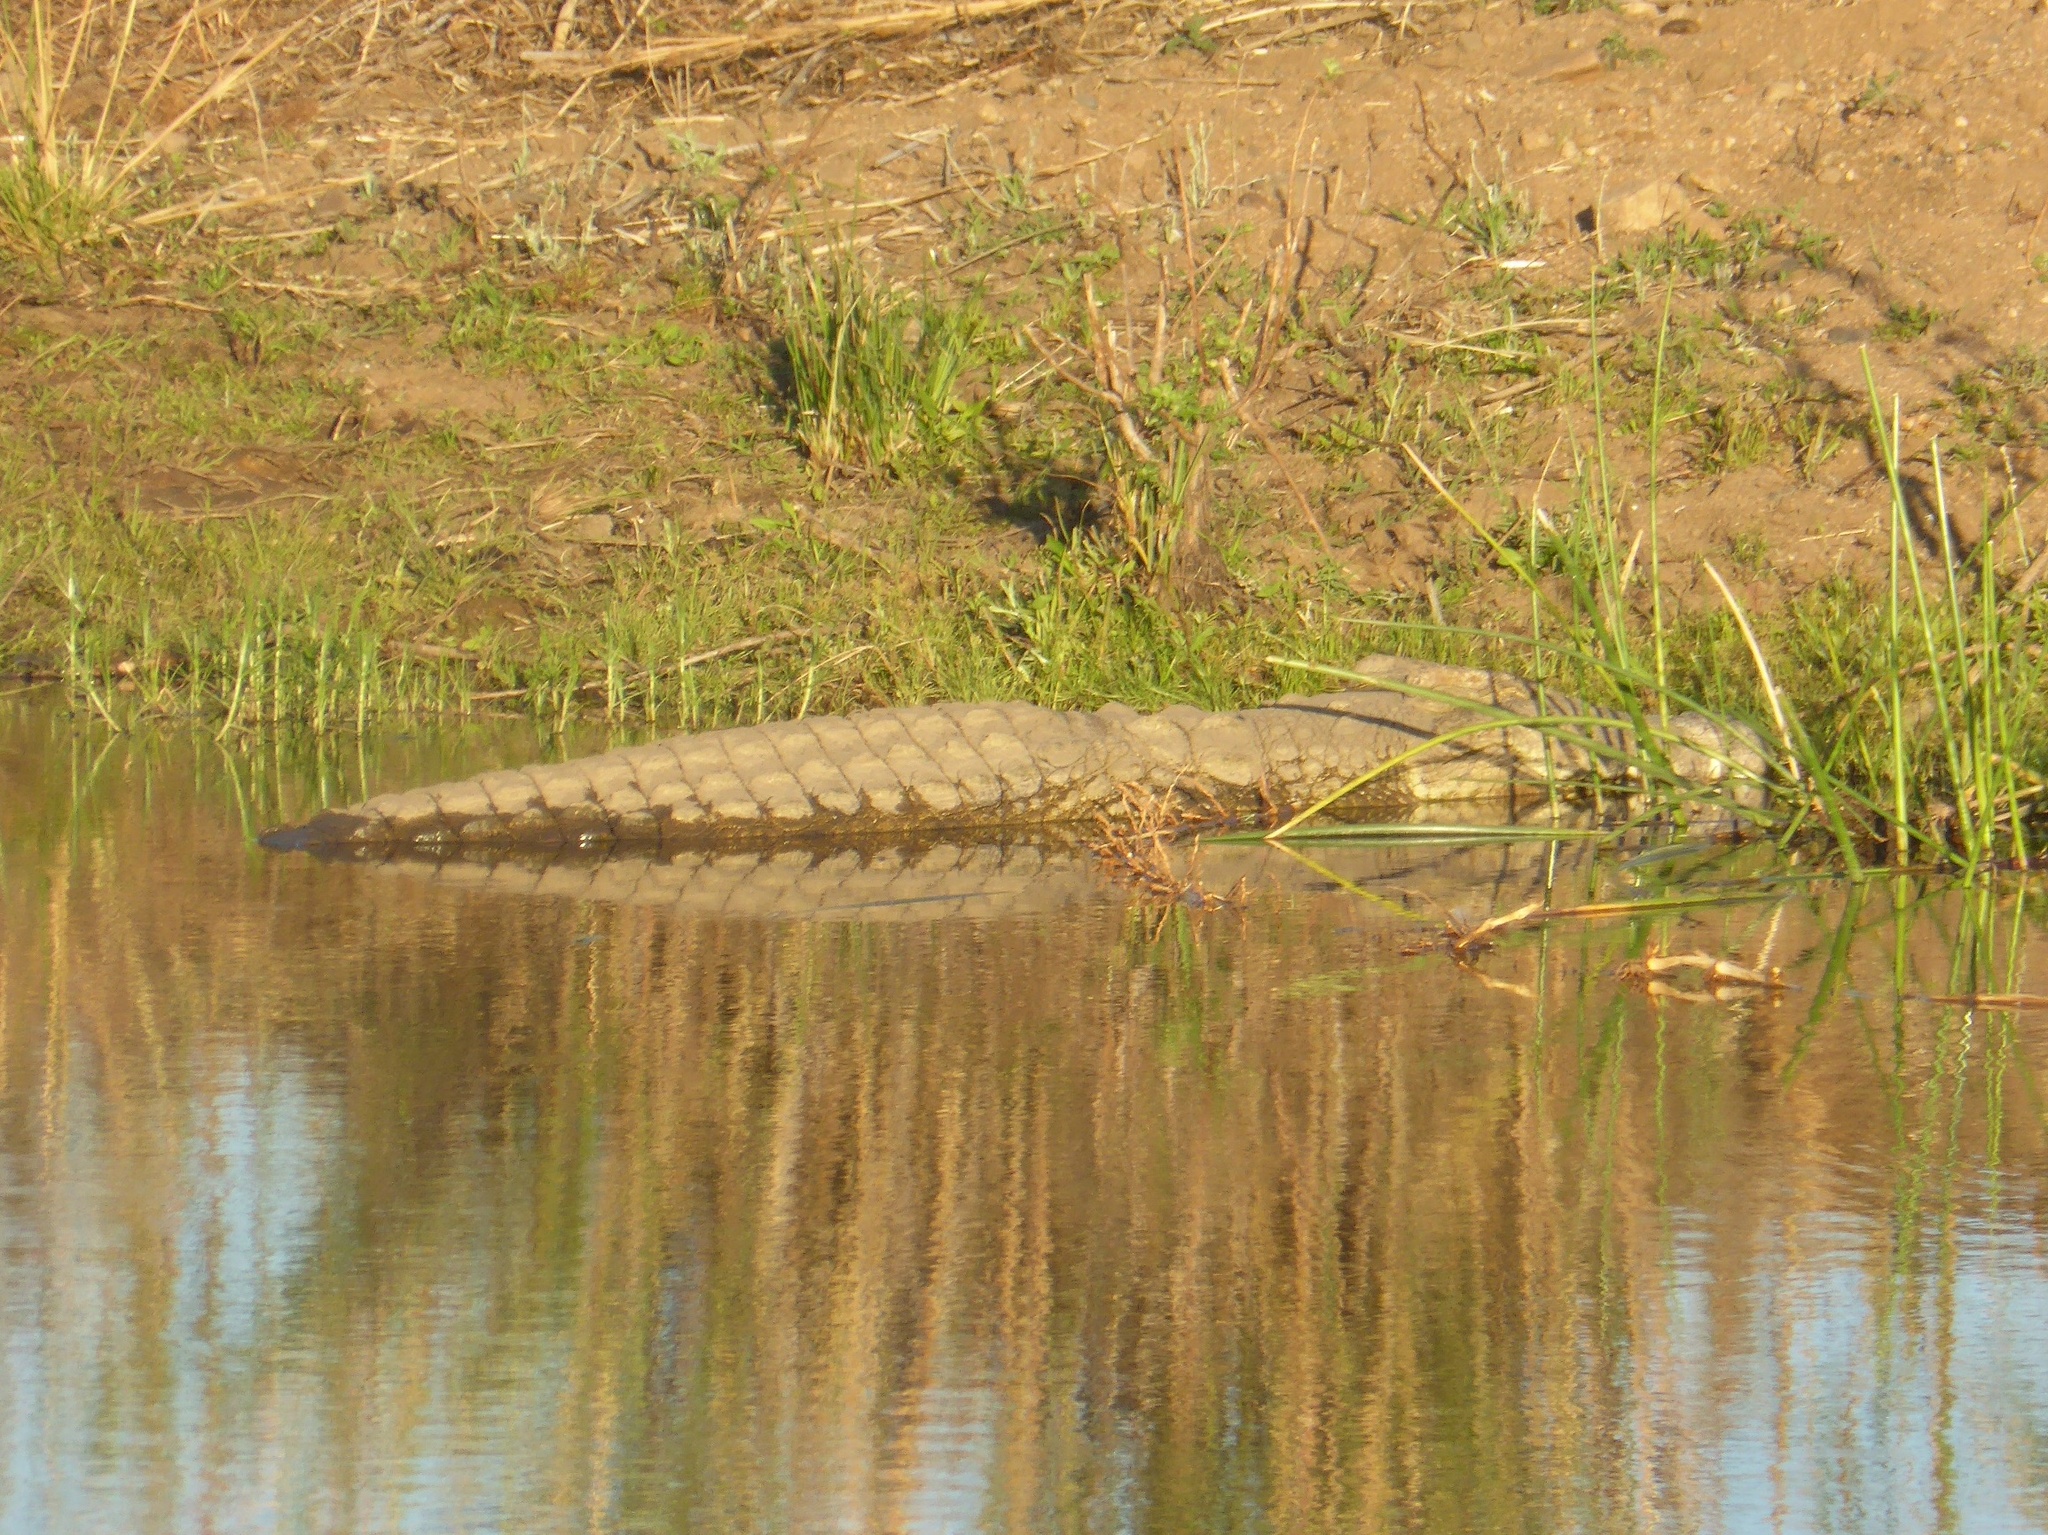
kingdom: Animalia
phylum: Chordata
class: Crocodylia
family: Crocodylidae
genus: Crocodylus
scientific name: Crocodylus niloticus
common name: Nile crocodile
